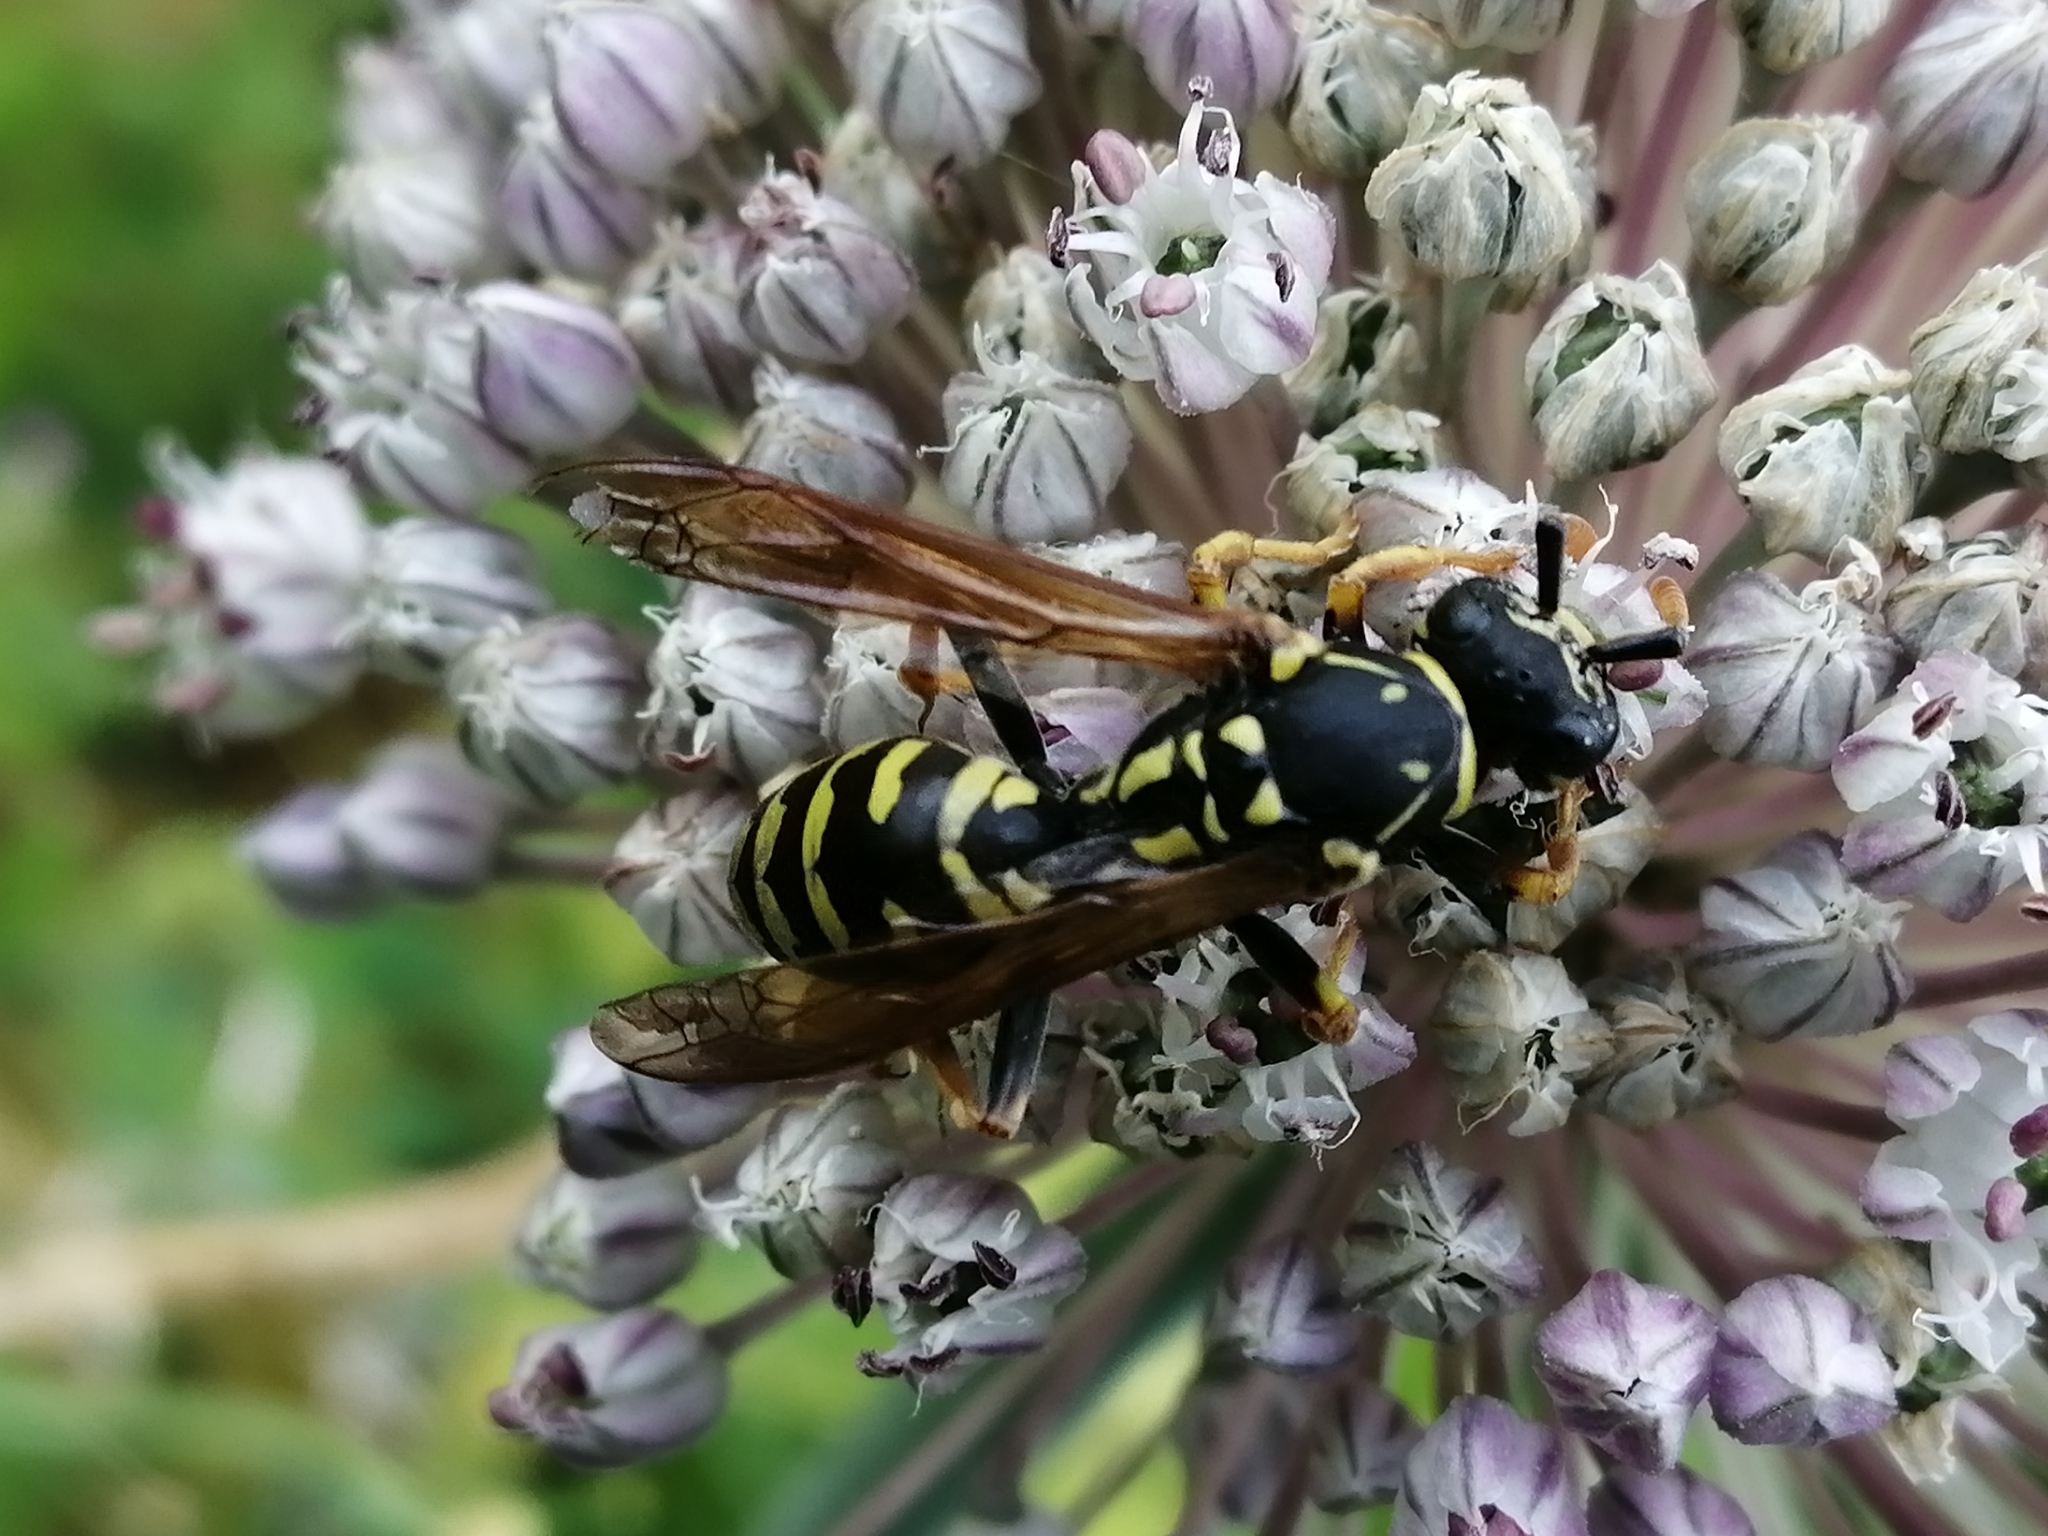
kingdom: Animalia
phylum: Arthropoda
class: Insecta
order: Hymenoptera
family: Eumenidae
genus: Polistes
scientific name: Polistes dominula
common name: Paper wasp
